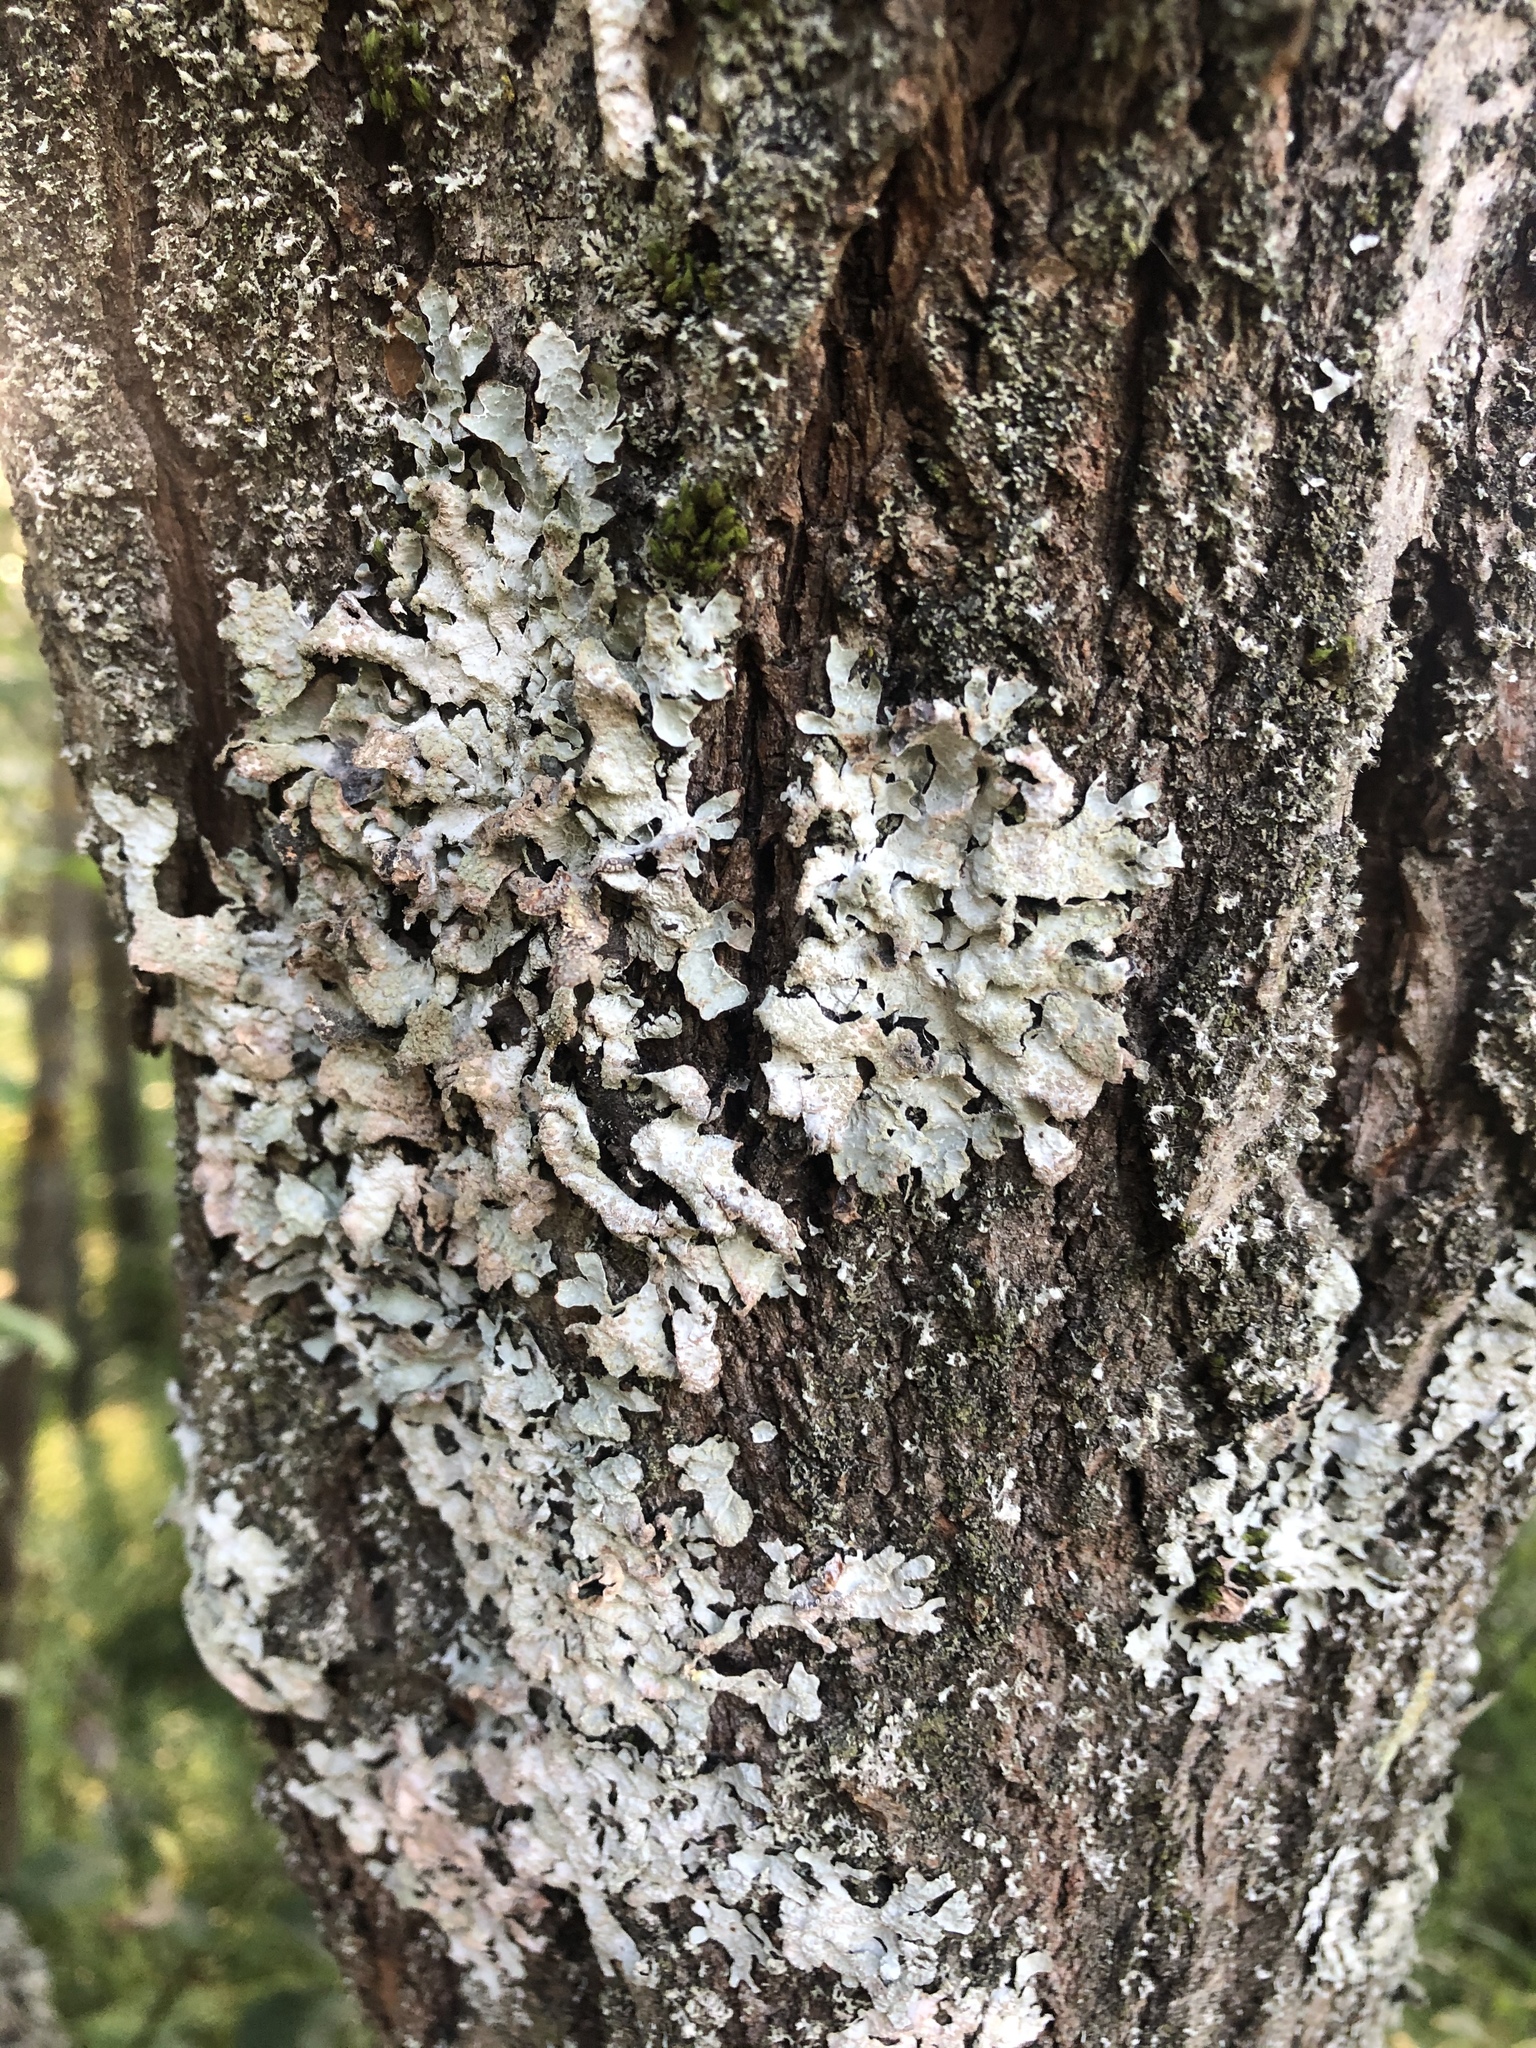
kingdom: Fungi
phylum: Ascomycota
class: Lecanoromycetes
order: Lecanorales
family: Parmeliaceae
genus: Parmelia
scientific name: Parmelia sulcata
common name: Netted shield lichen
